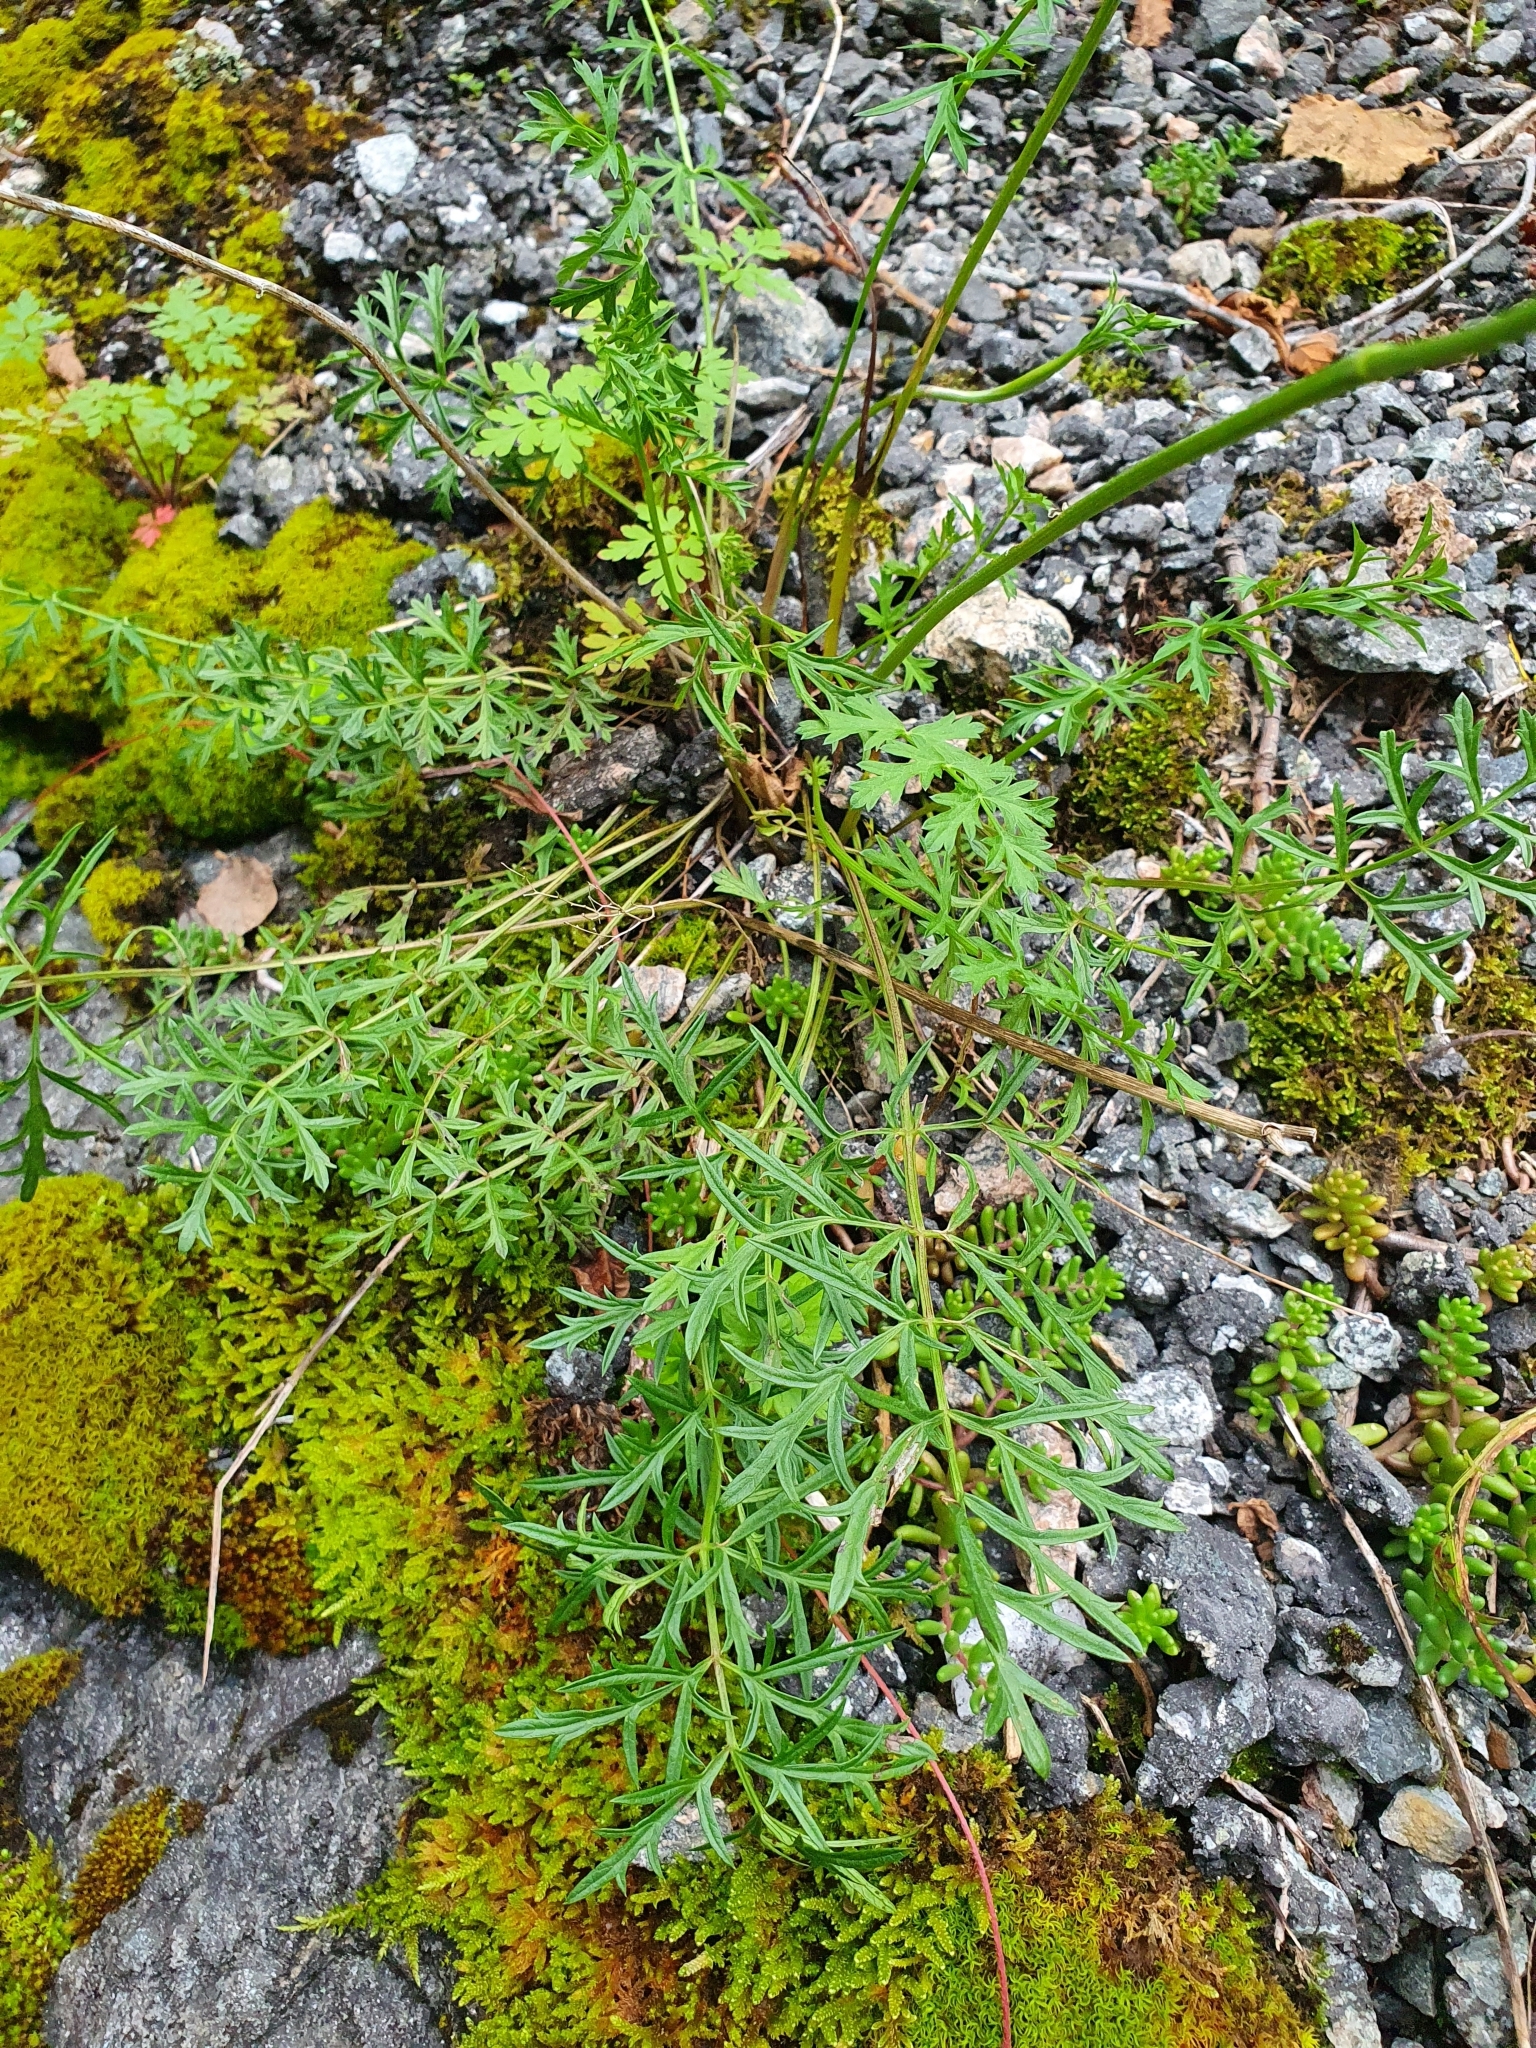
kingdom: Plantae
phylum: Tracheophyta
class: Magnoliopsida
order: Apiales
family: Apiaceae
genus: Pimpinella
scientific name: Pimpinella saxifraga
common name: Burnet-saxifrage
